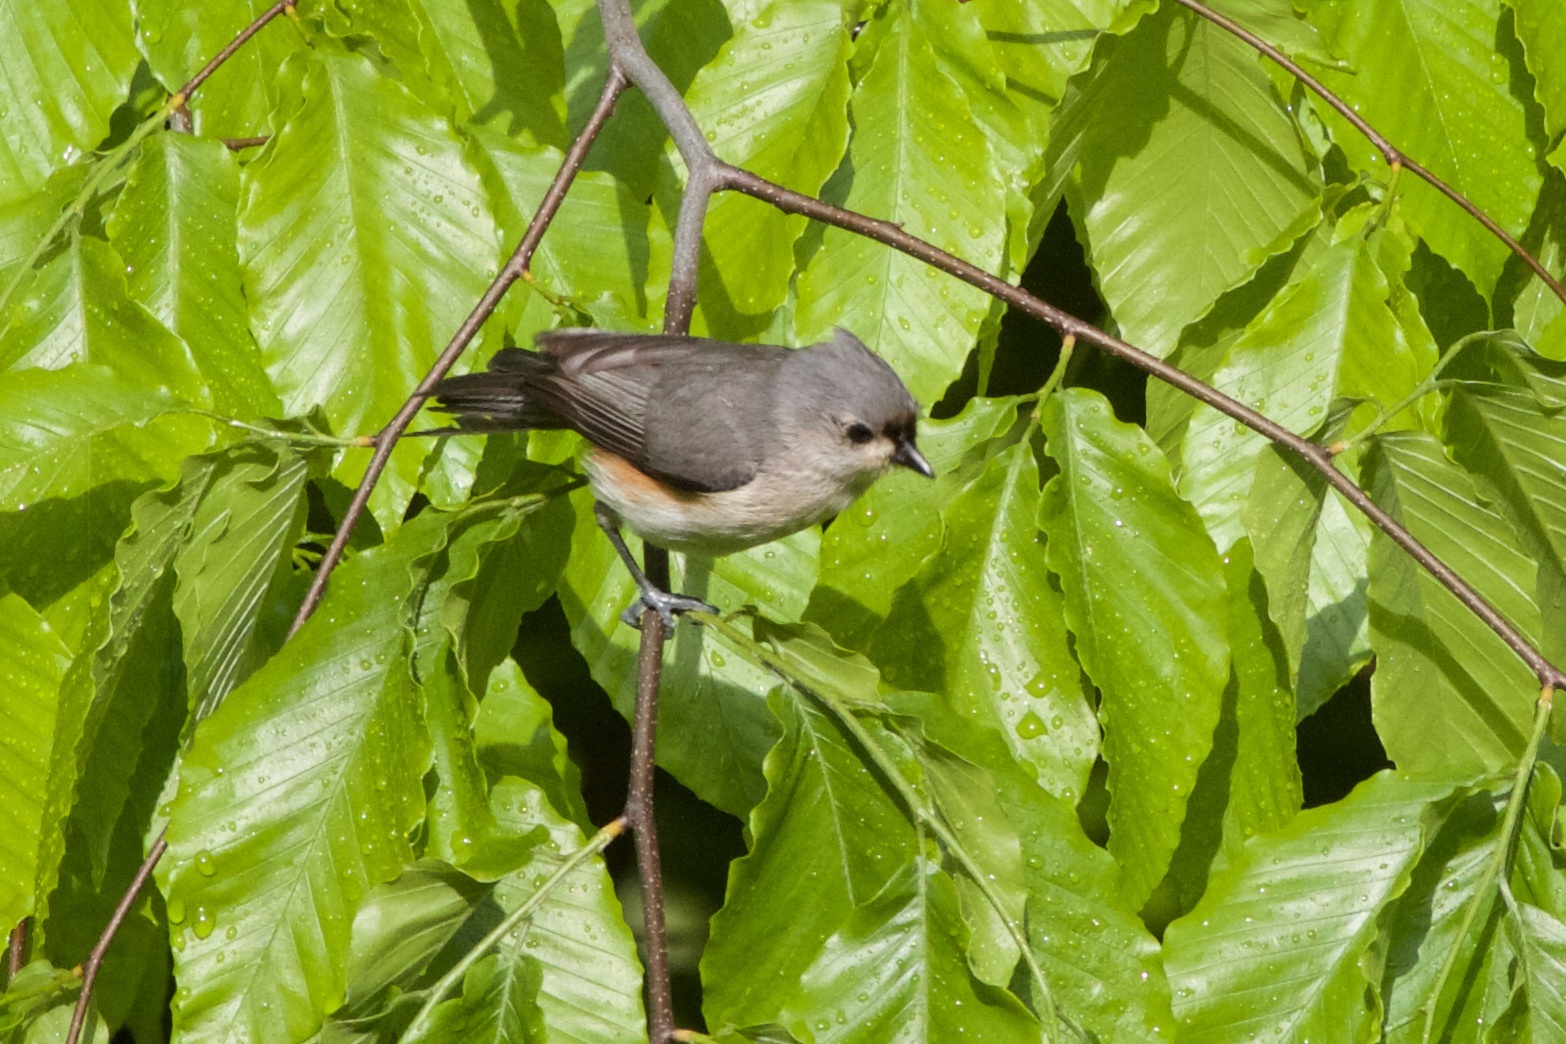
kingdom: Animalia
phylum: Chordata
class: Aves
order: Passeriformes
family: Paridae
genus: Baeolophus
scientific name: Baeolophus bicolor
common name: Tufted titmouse
